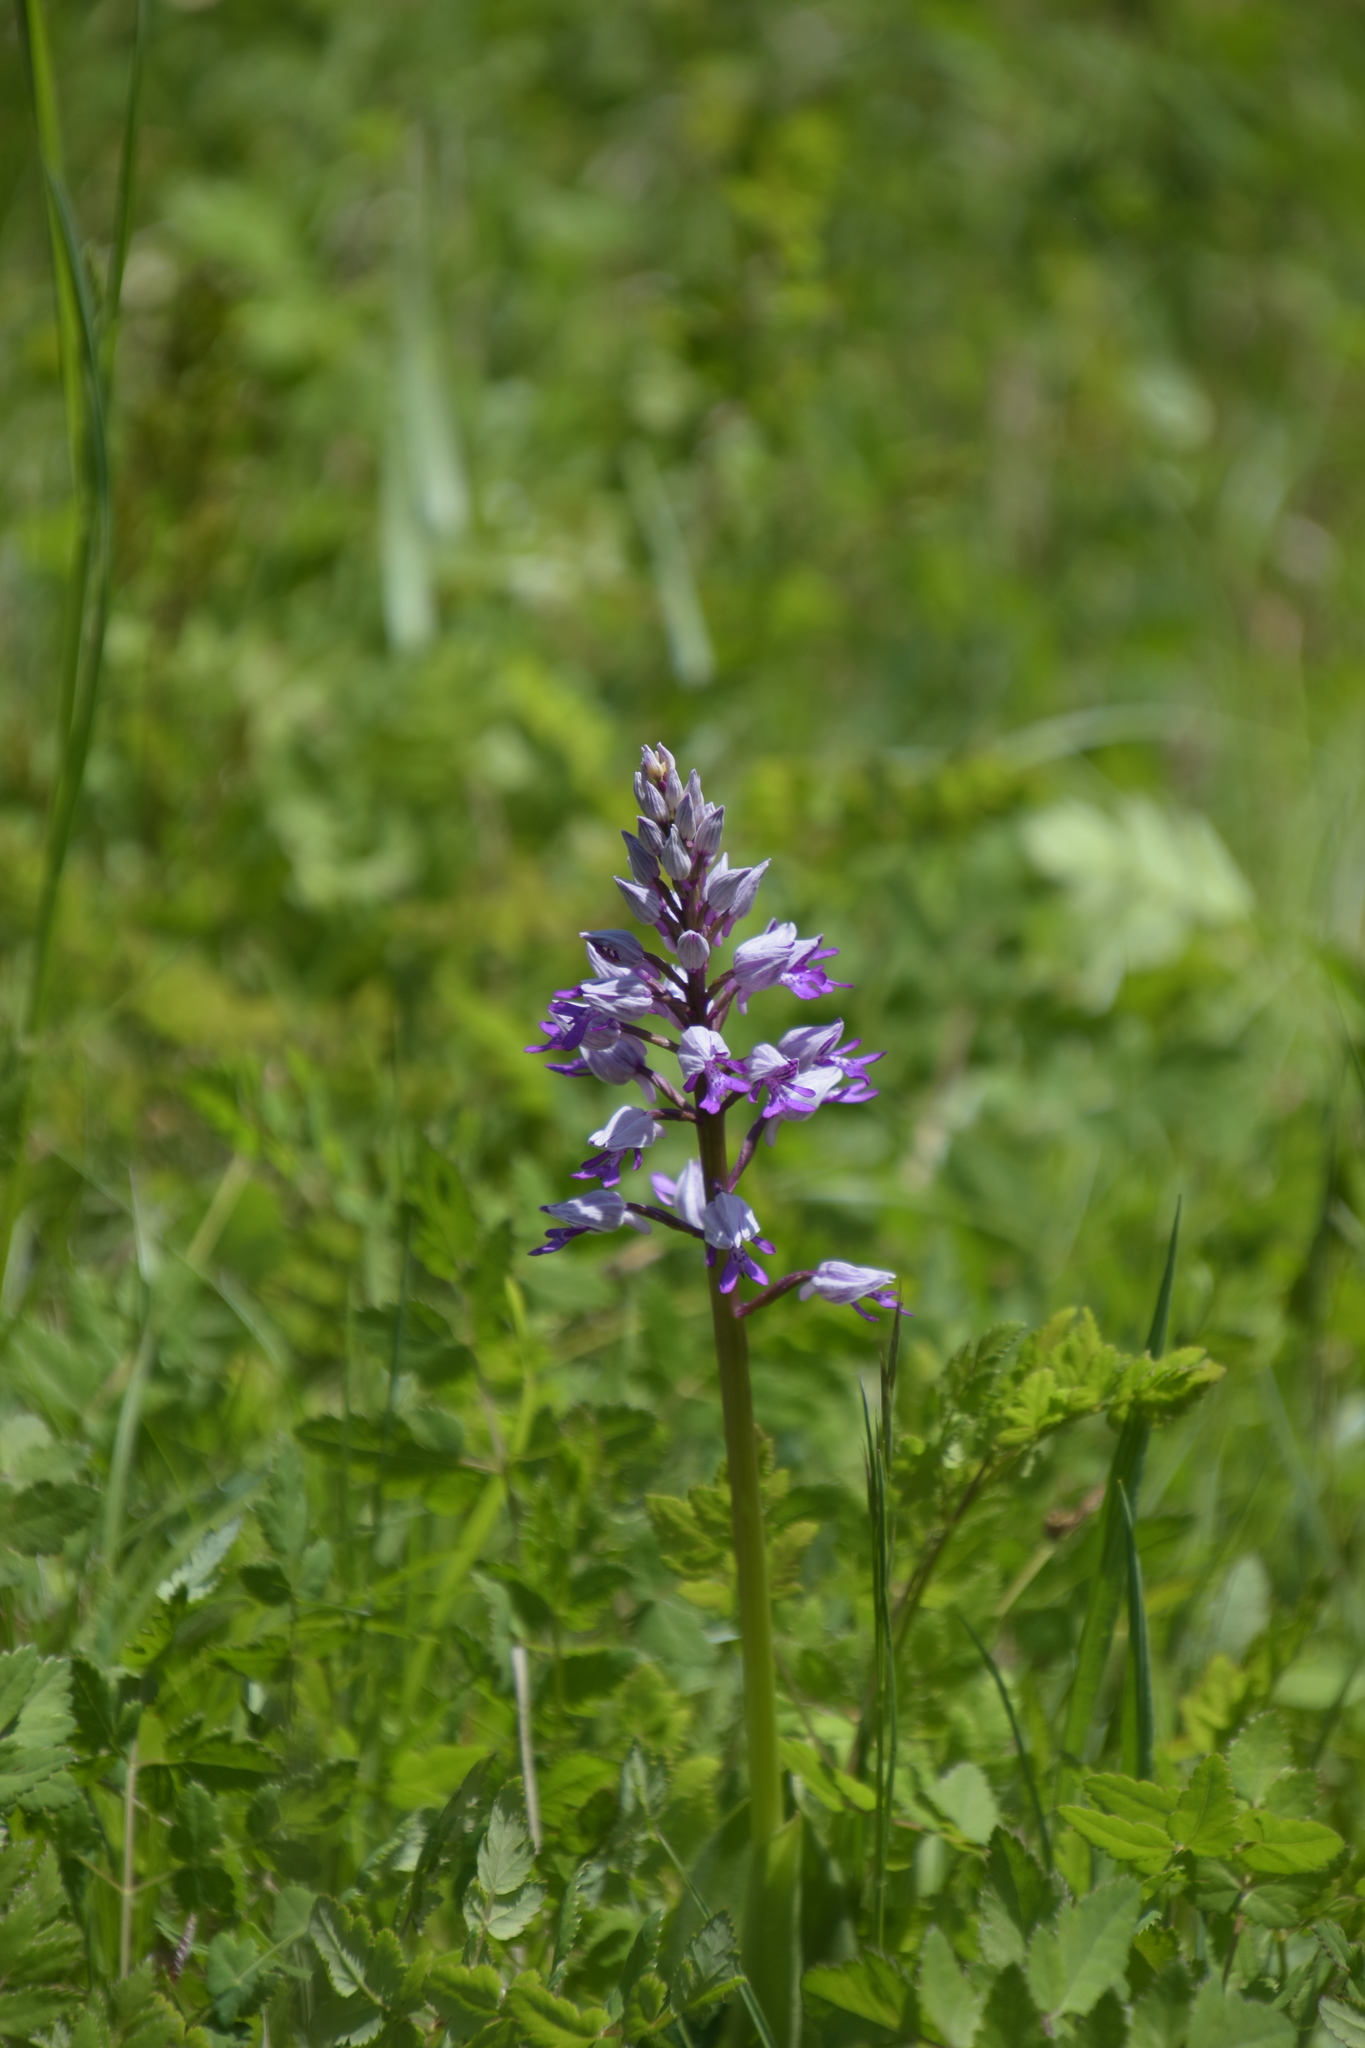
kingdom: Plantae
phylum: Tracheophyta
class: Liliopsida
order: Asparagales
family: Orchidaceae
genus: Orchis
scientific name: Orchis militaris
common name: Military orchid
